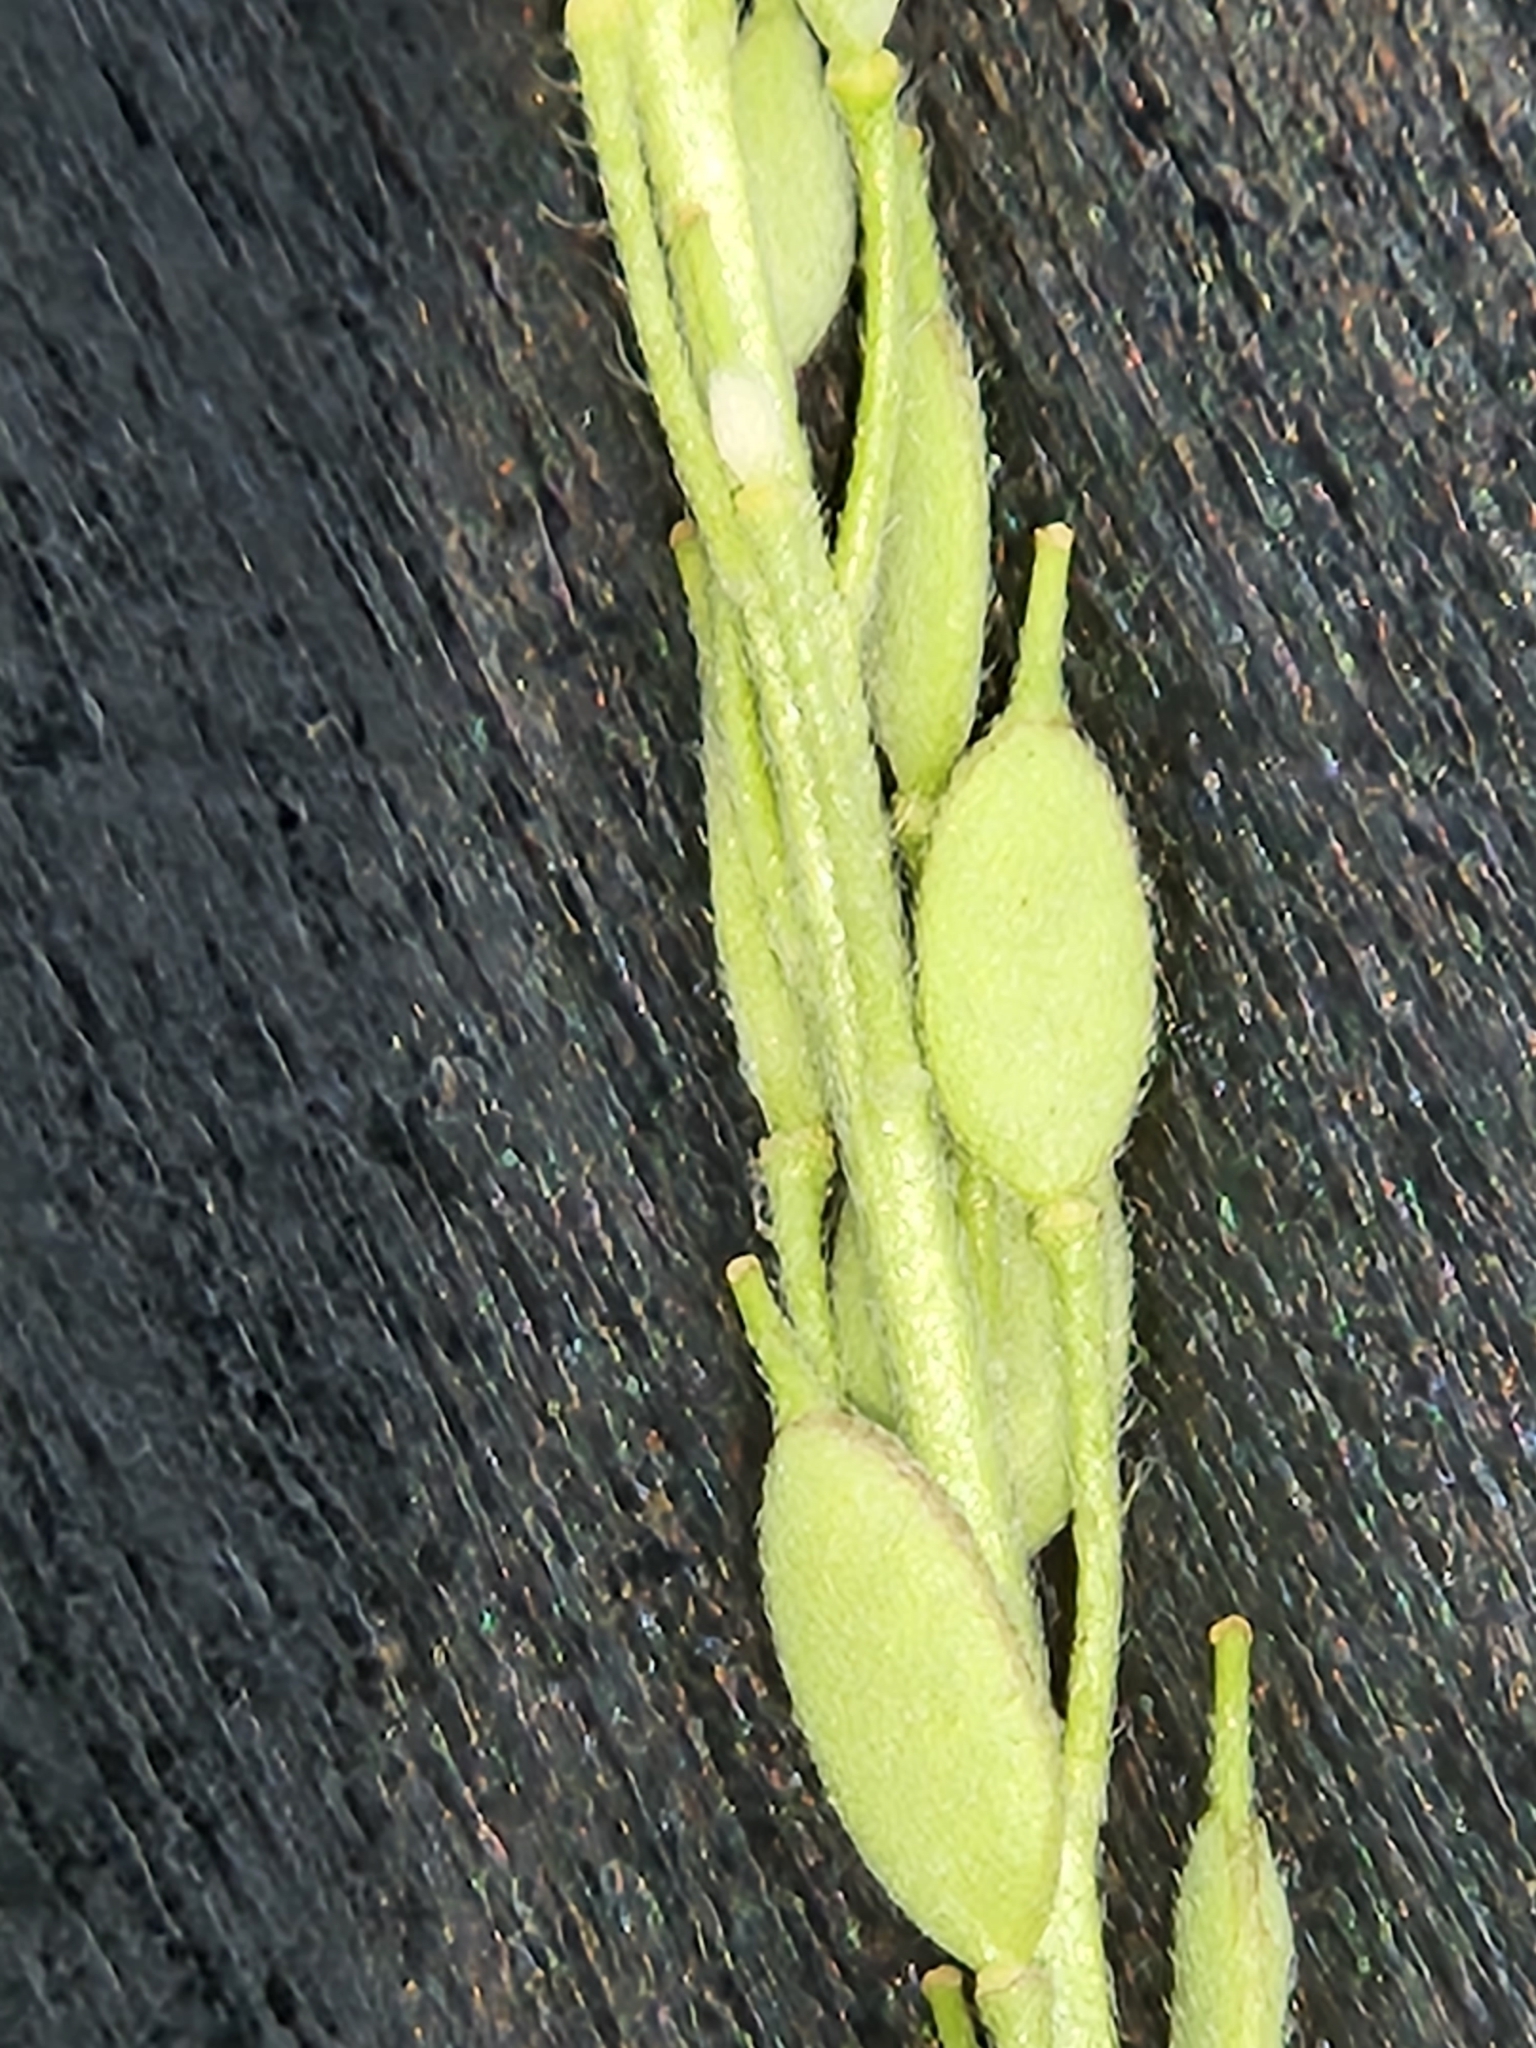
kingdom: Plantae
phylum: Tracheophyta
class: Magnoliopsida
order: Brassicales
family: Brassicaceae
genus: Berteroa
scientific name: Berteroa incana
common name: Hoary alison
